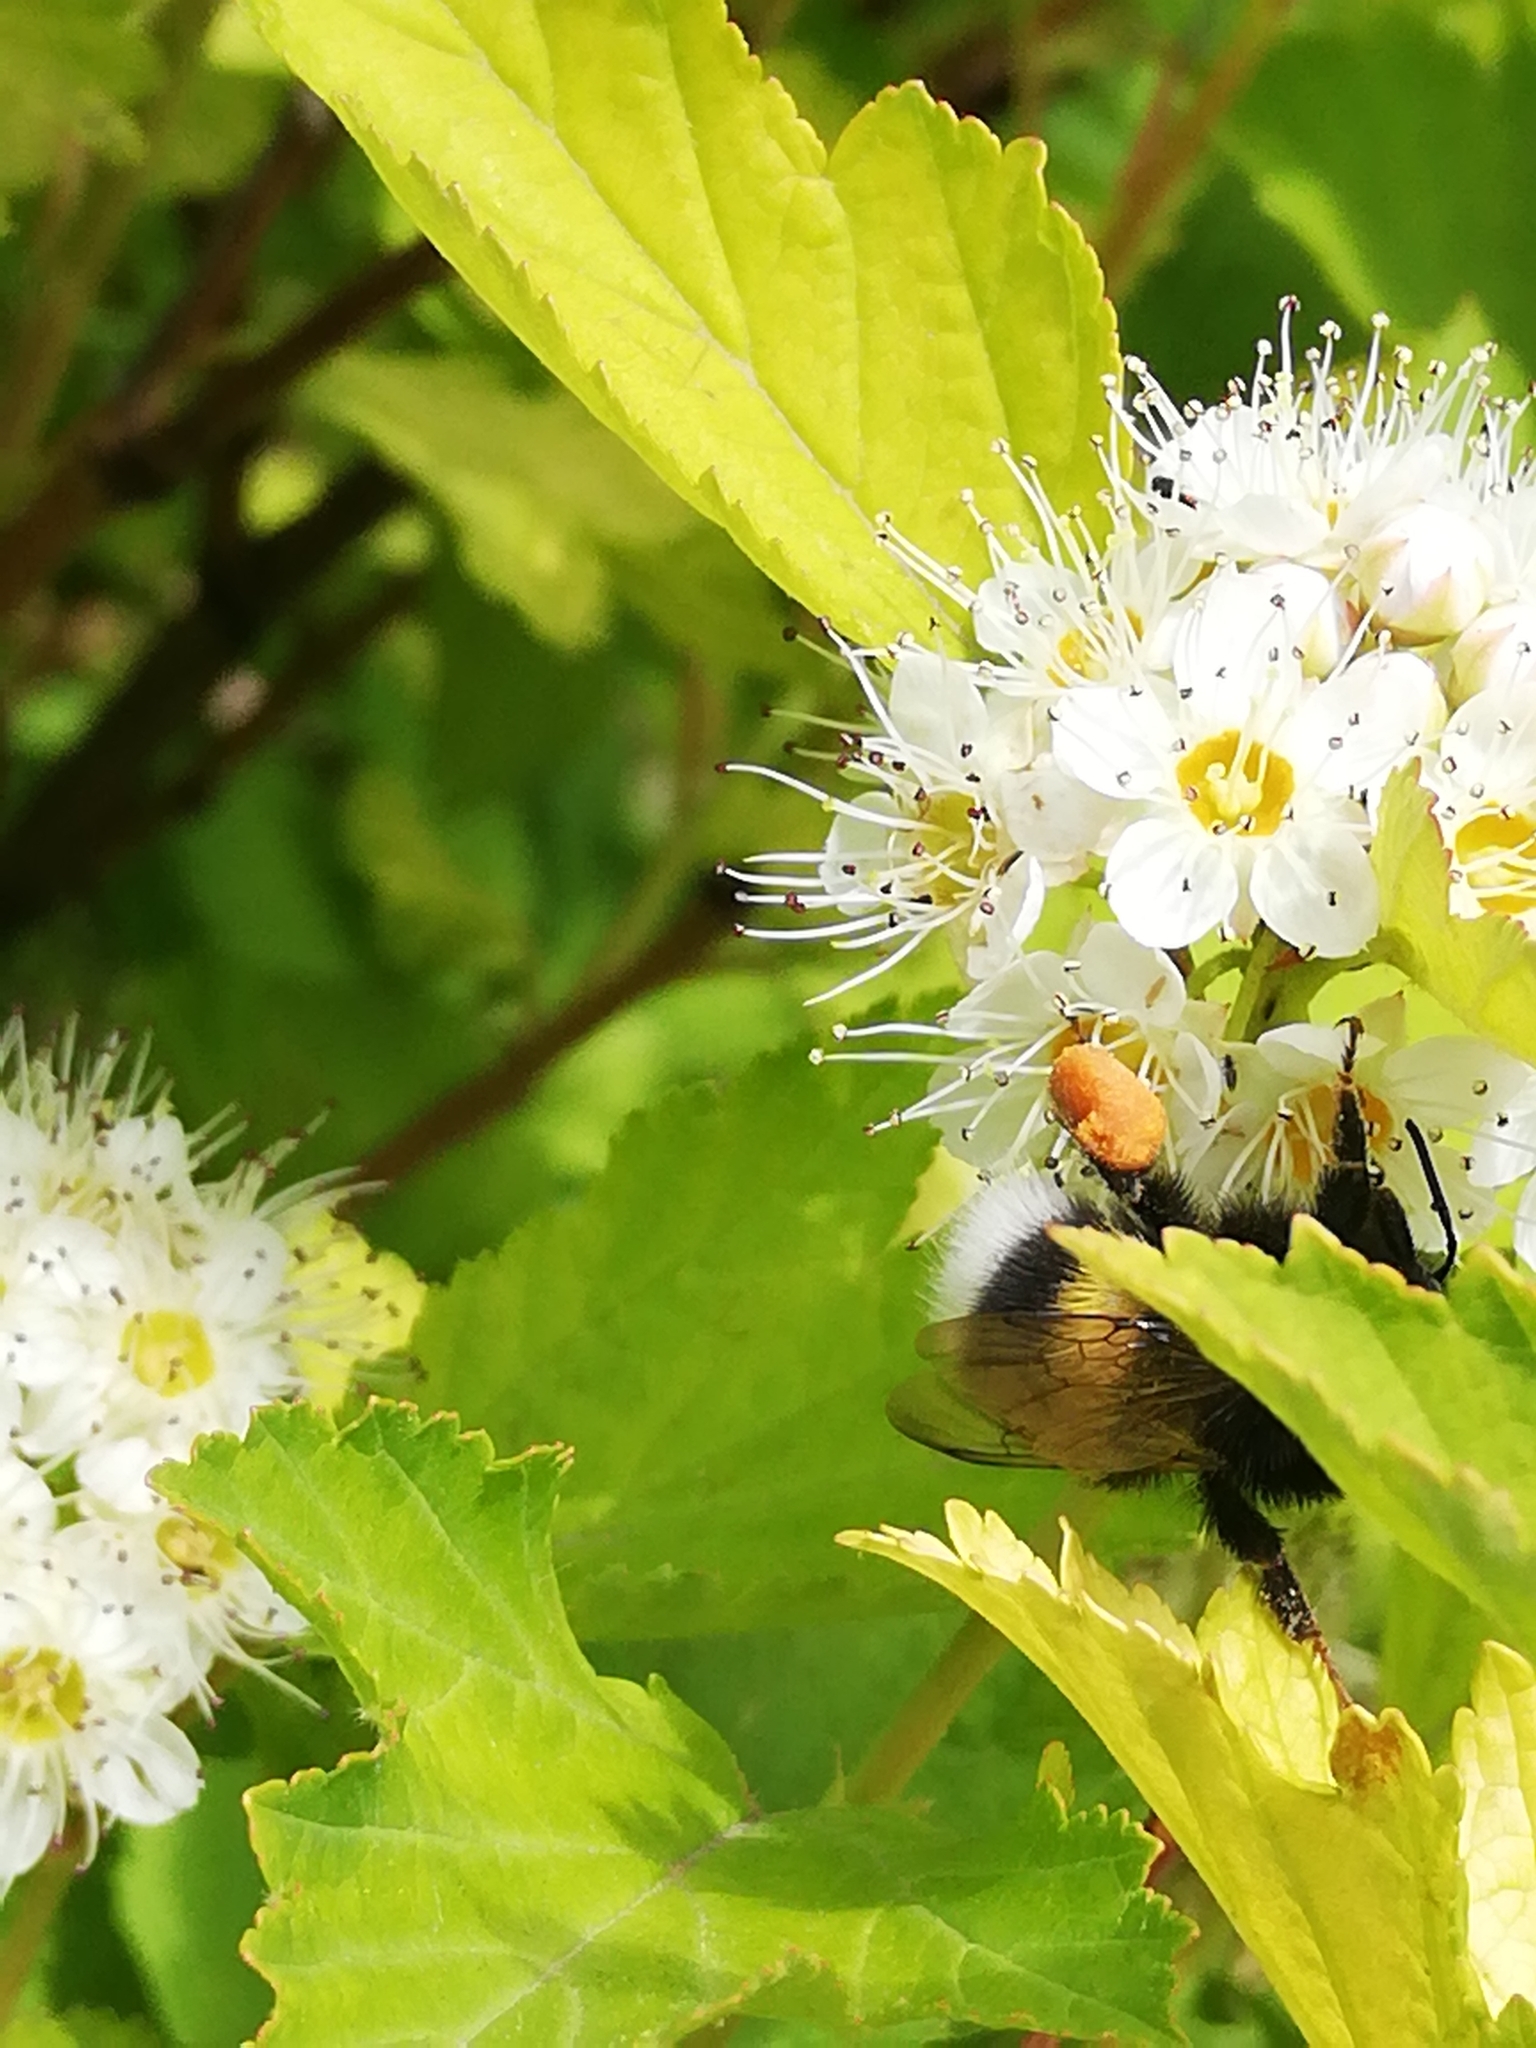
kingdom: Animalia
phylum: Arthropoda
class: Insecta
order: Hymenoptera
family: Apidae
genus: Bombus
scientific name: Bombus
